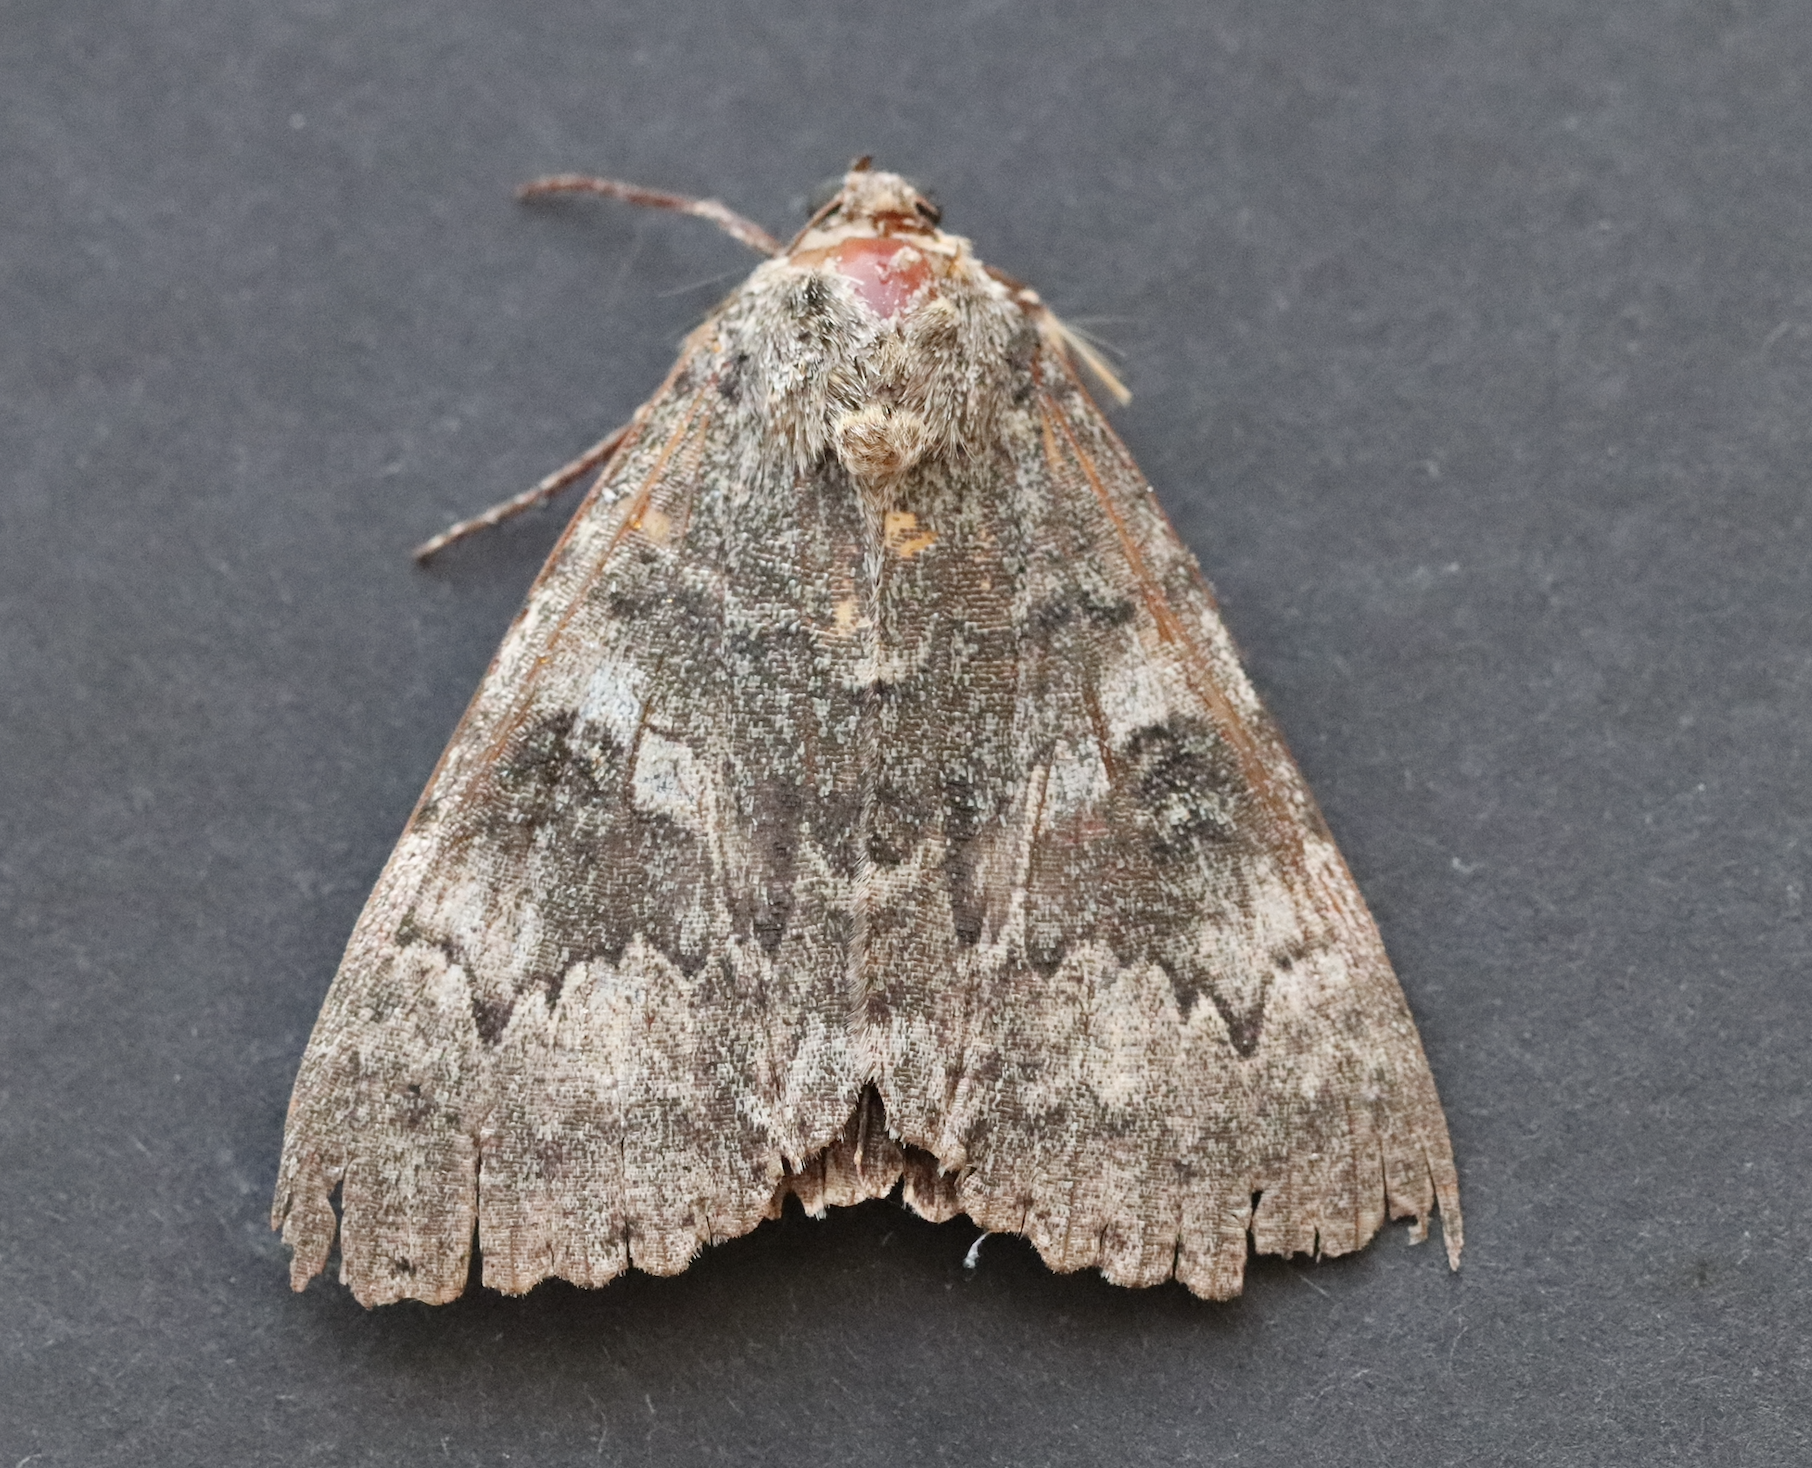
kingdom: Animalia
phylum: Arthropoda
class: Insecta
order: Lepidoptera
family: Erebidae
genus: Catocala
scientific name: Catocala nupta
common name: Red underwing
